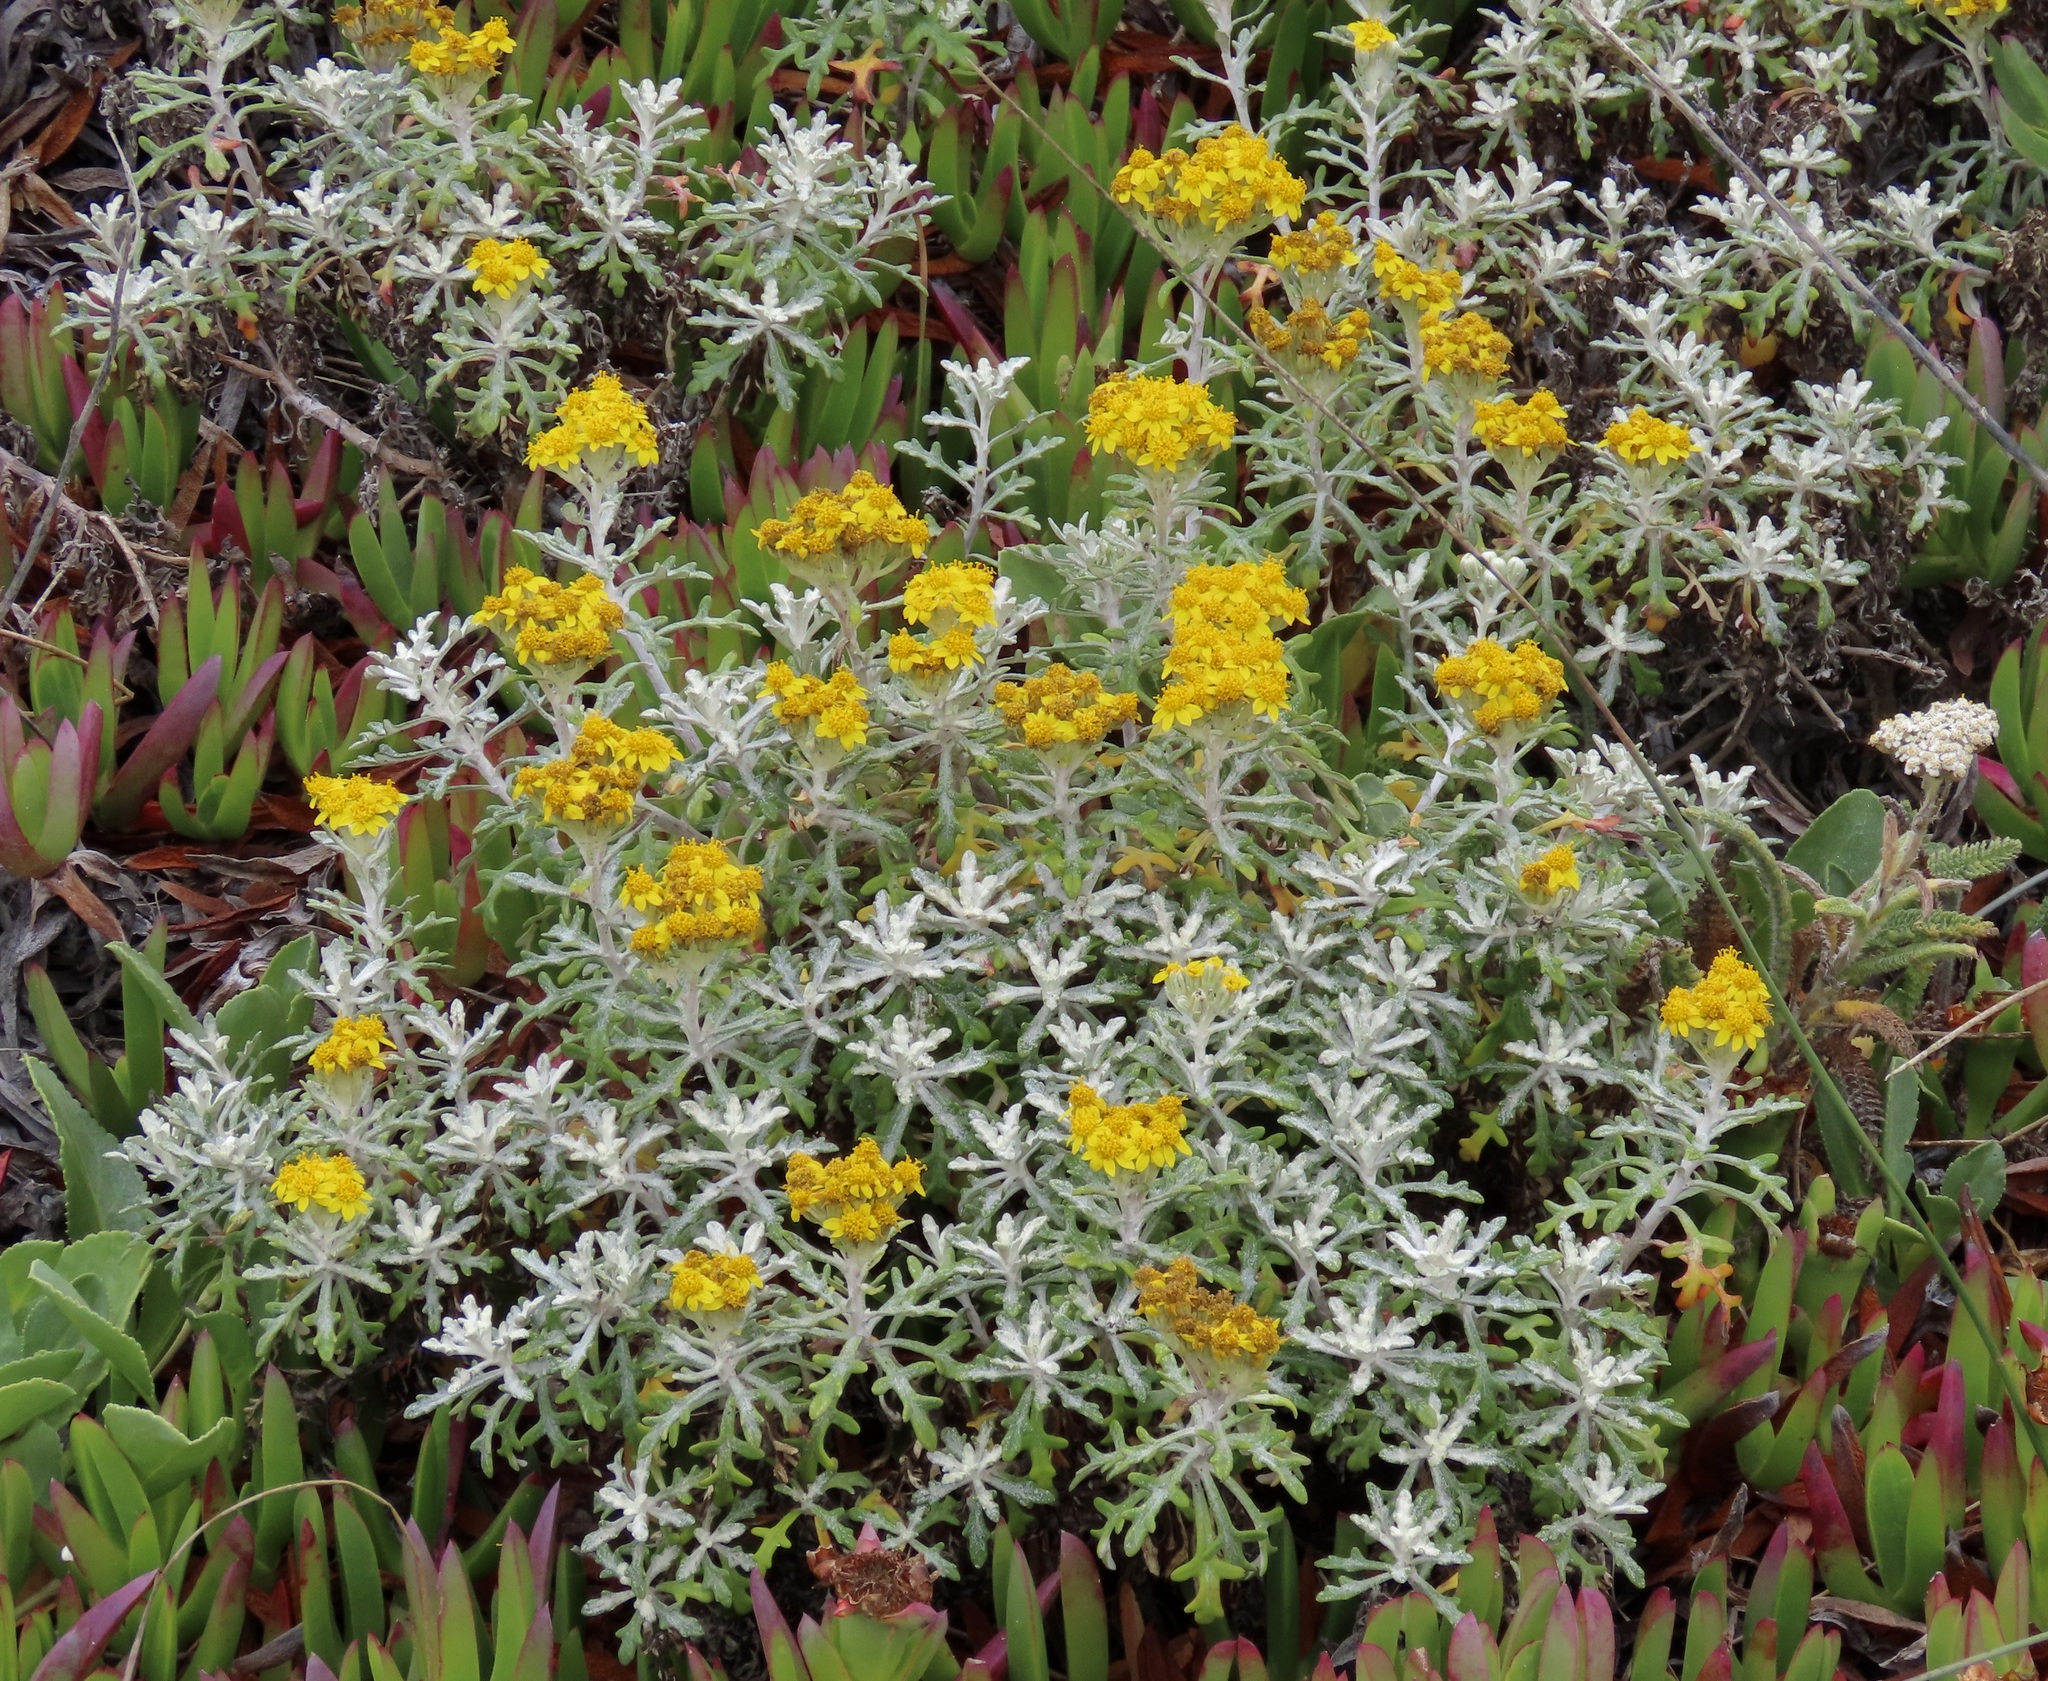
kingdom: Plantae
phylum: Tracheophyta
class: Magnoliopsida
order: Asterales
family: Asteraceae
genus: Eriophyllum
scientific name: Eriophyllum staechadifolium
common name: Lizardtail
